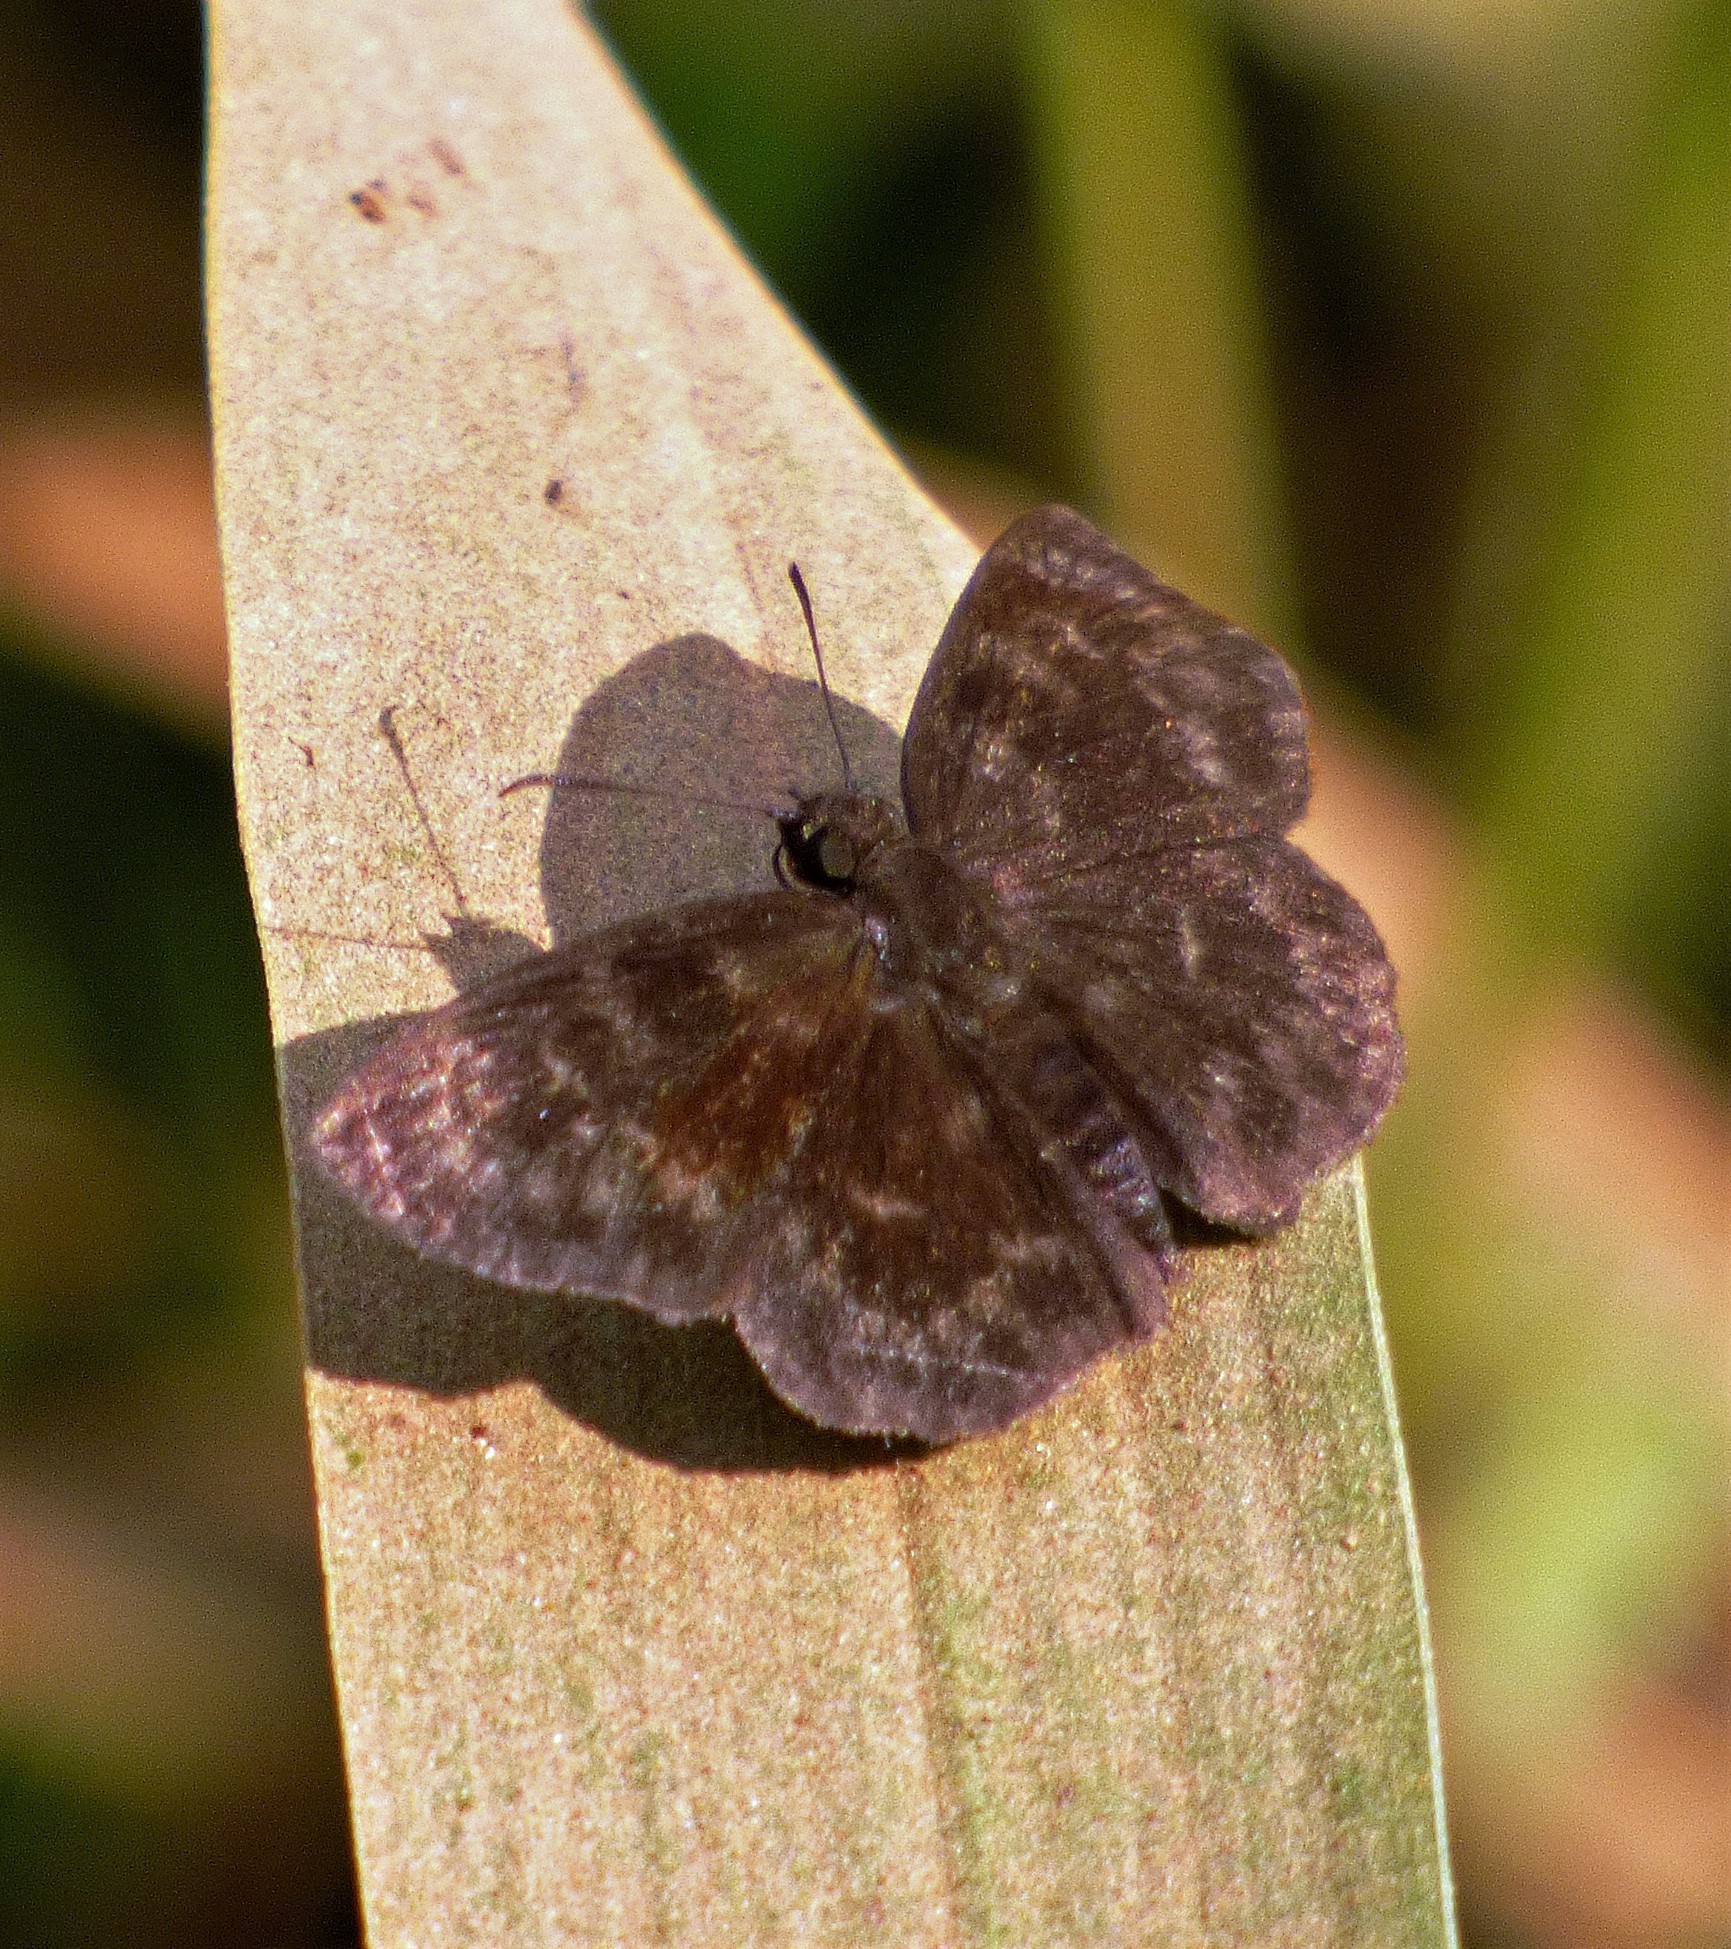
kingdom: Animalia
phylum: Arthropoda
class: Insecta
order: Lepidoptera
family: Hesperiidae
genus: Ouleus
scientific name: Ouleus fridericus
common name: Fridericus spreadwing
